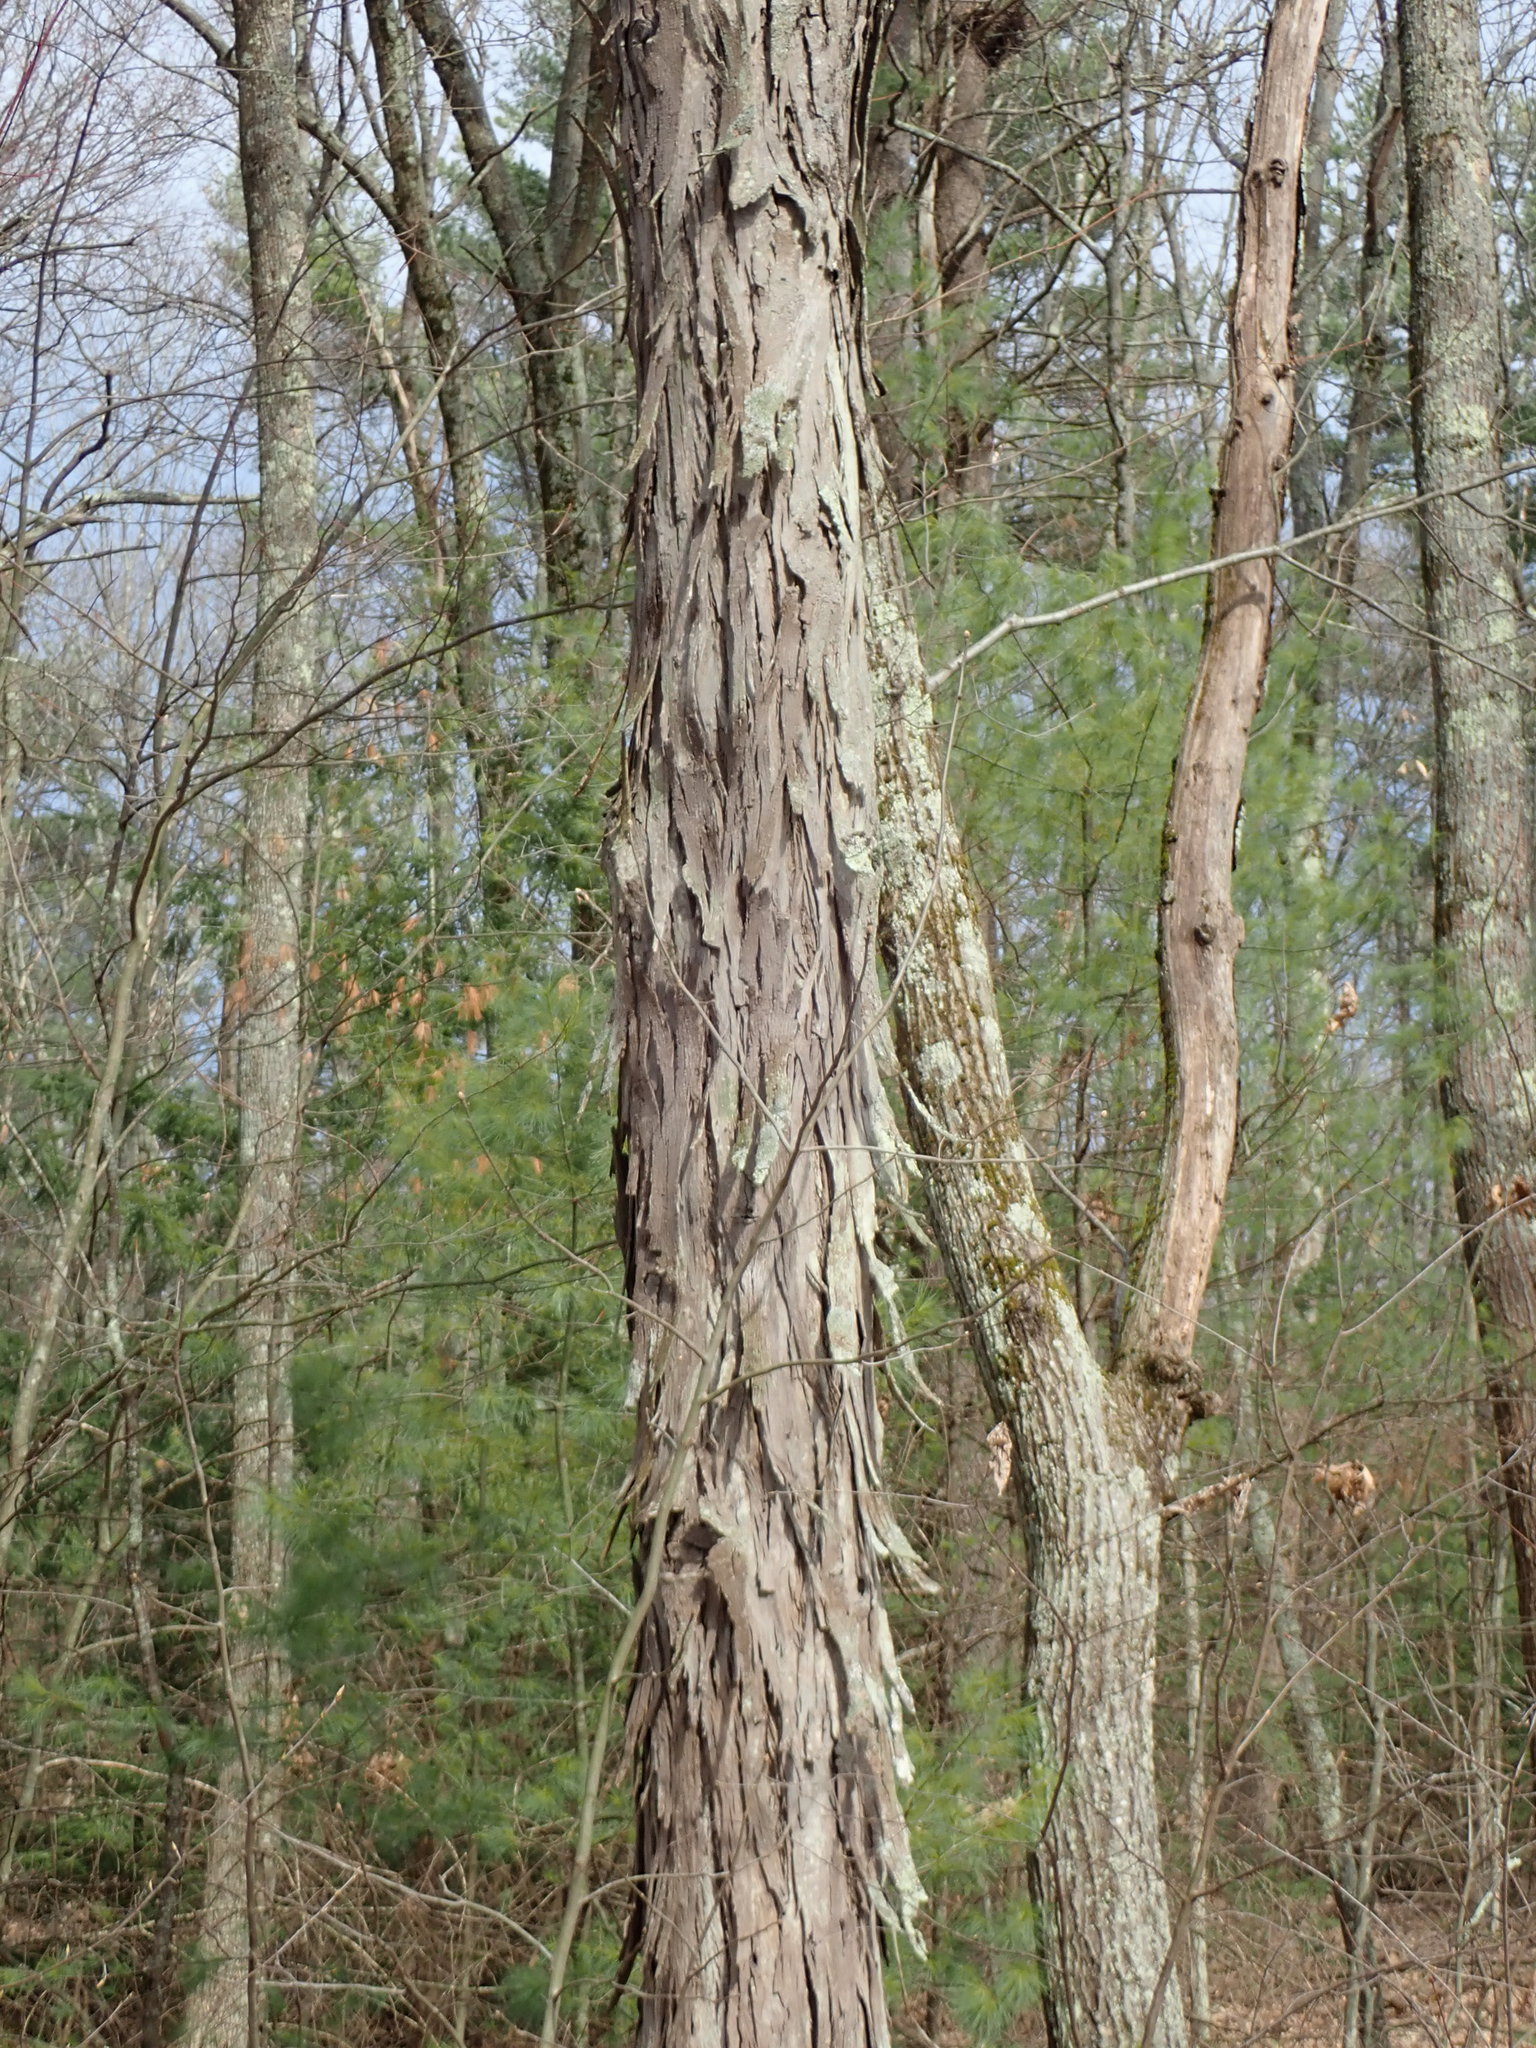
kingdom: Plantae
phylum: Tracheophyta
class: Magnoliopsida
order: Fagales
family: Juglandaceae
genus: Carya
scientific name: Carya ovata
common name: Shagbark hickory
